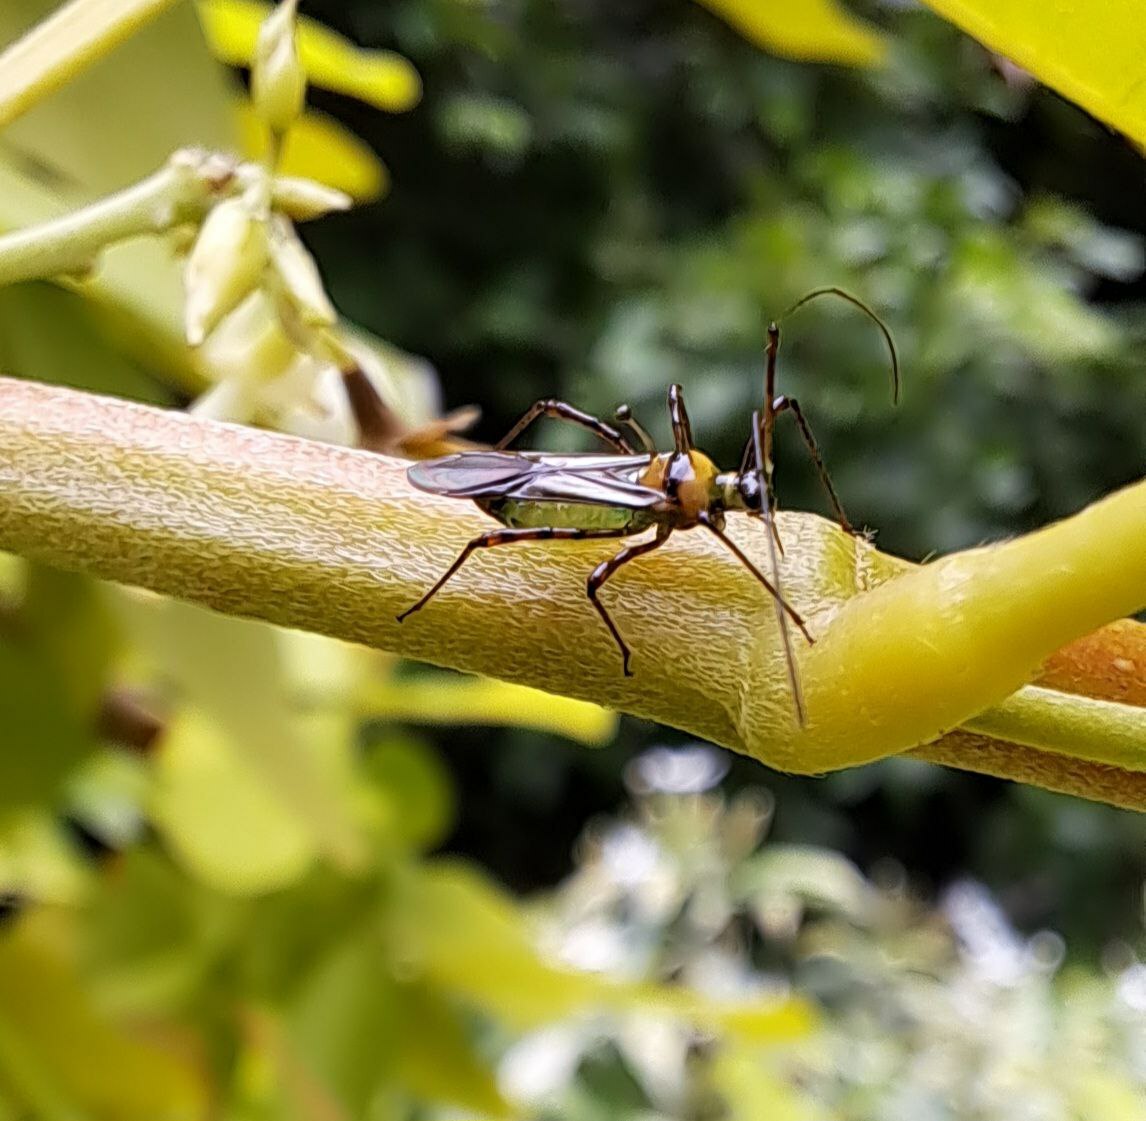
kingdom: Animalia
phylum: Arthropoda
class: Insecta
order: Hemiptera
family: Miridae
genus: Helopeltis
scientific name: Helopeltis theivora
